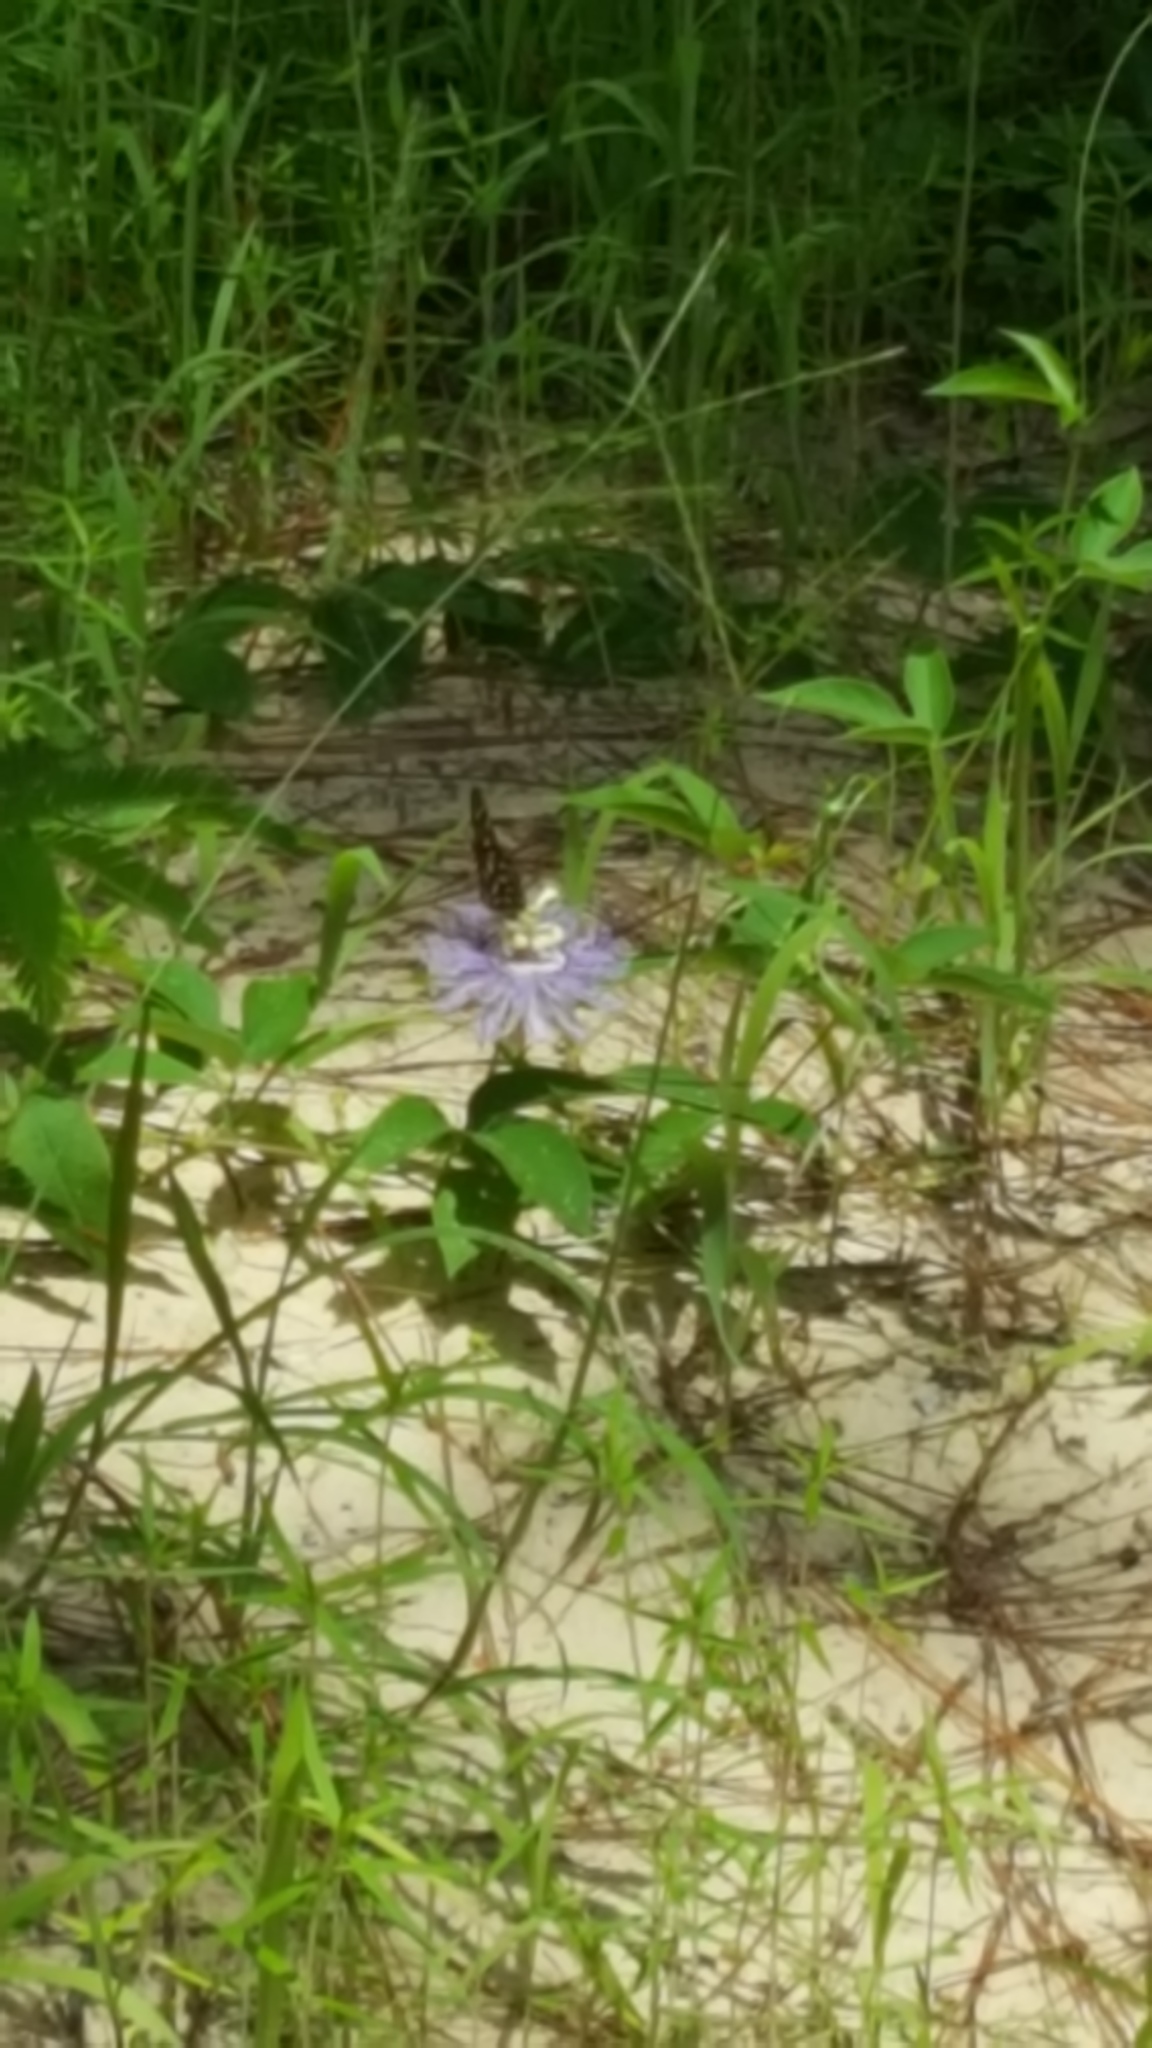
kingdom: Animalia
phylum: Arthropoda
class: Insecta
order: Lepidoptera
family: Nymphalidae
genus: Dione
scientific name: Dione vanillae
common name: Gulf fritillary
